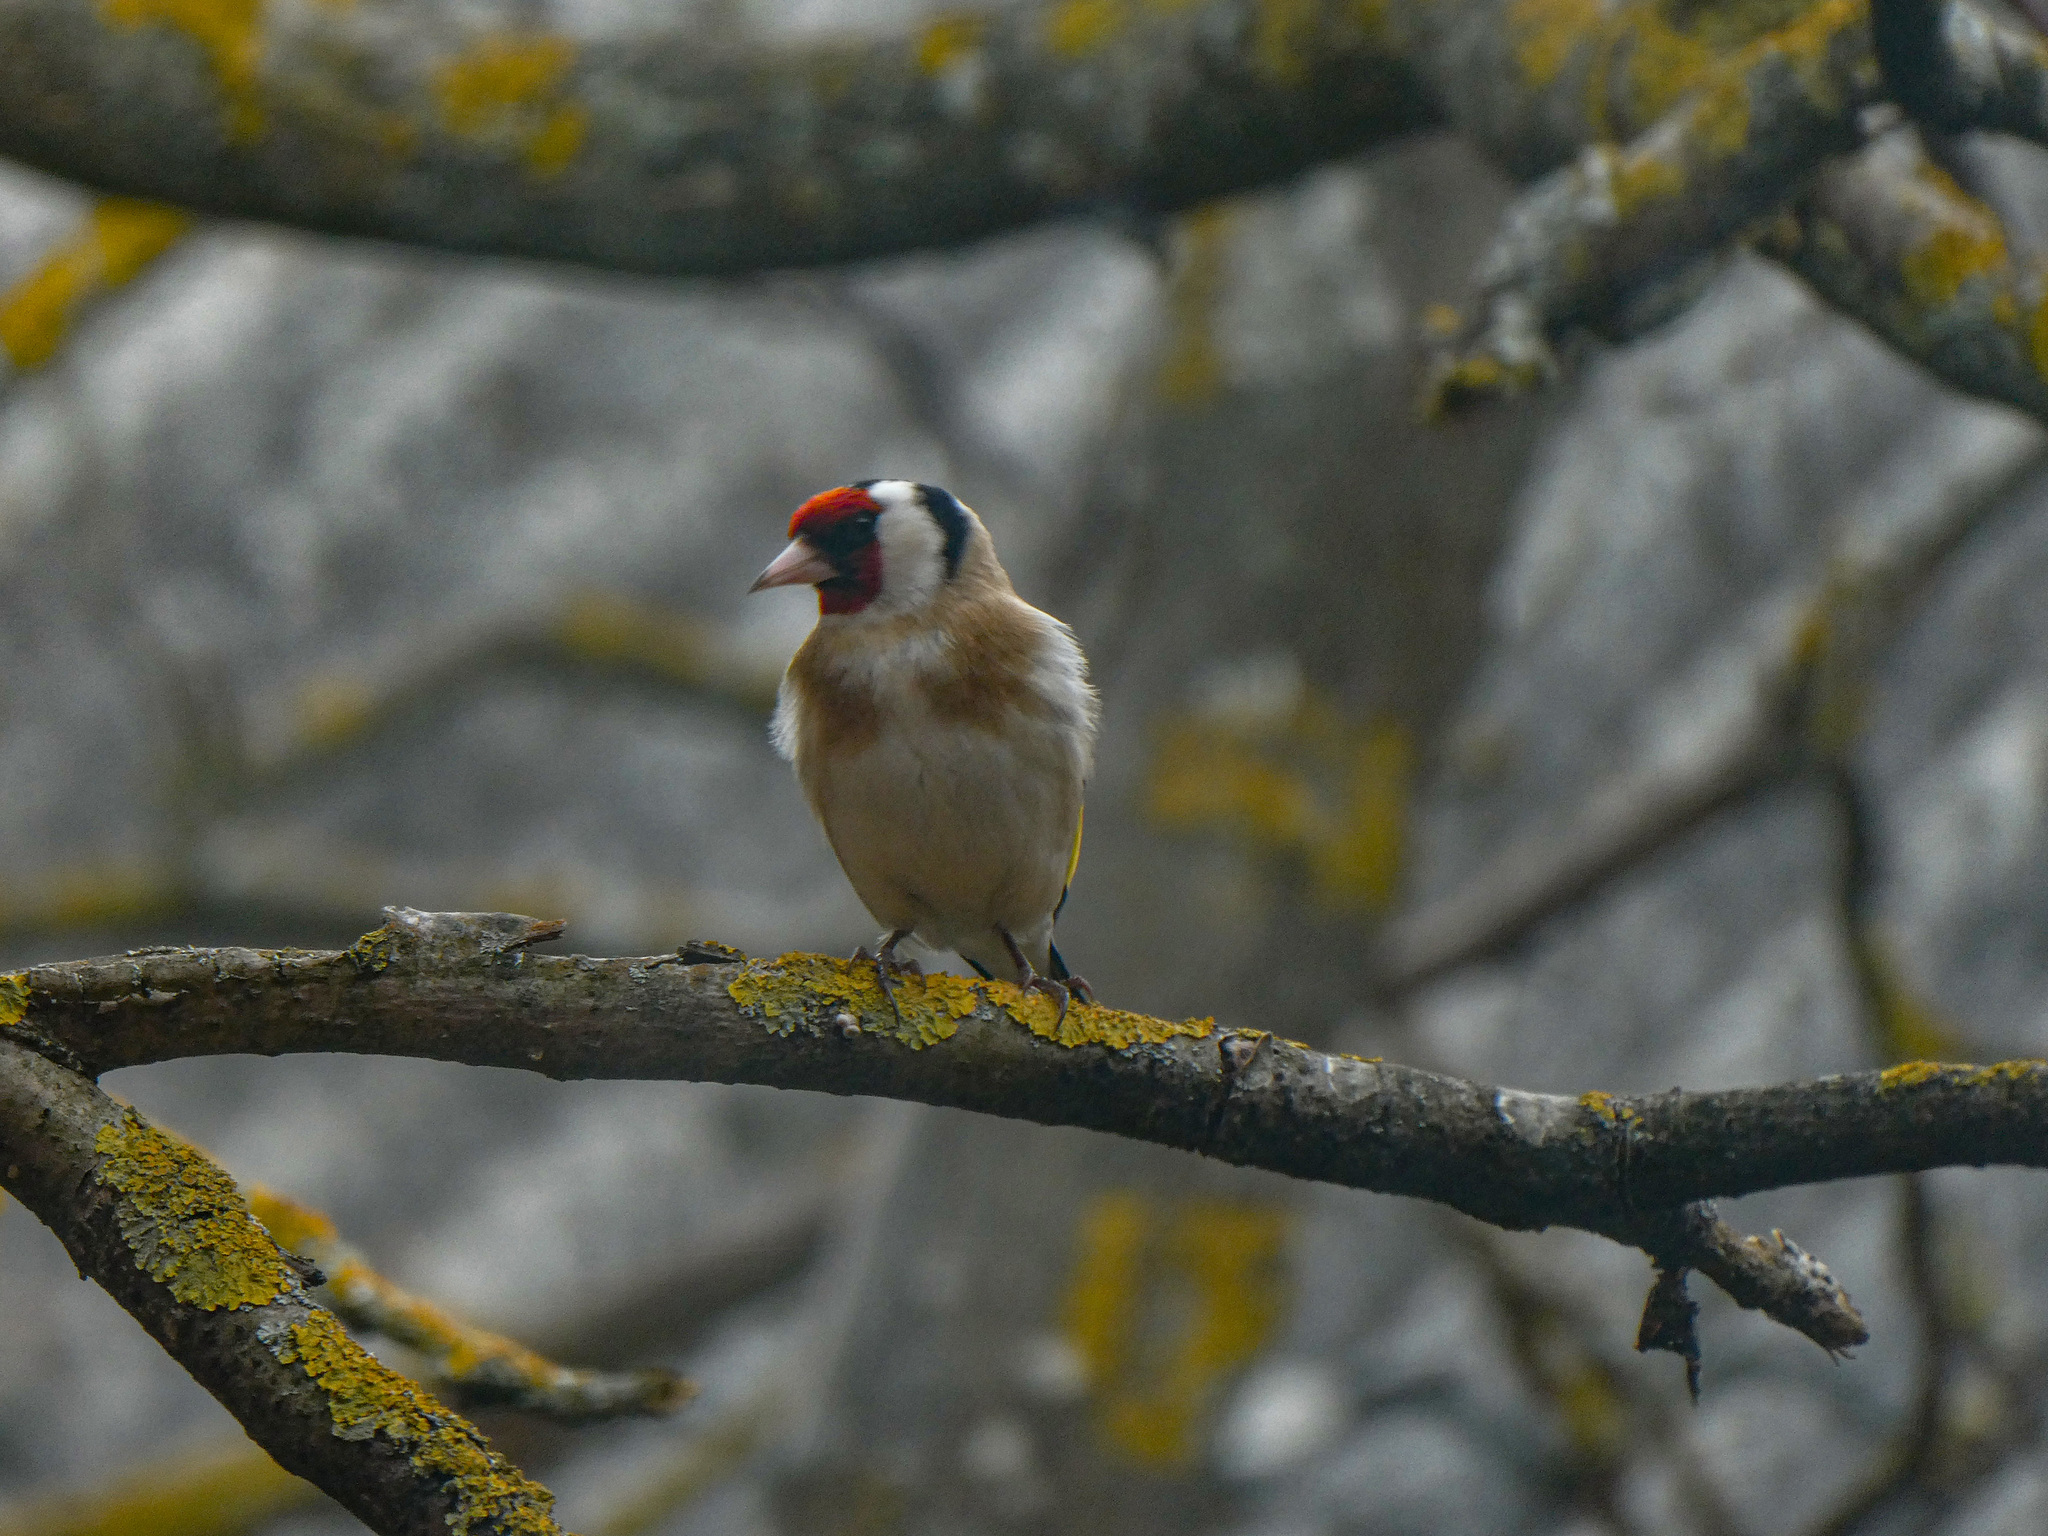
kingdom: Animalia
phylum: Chordata
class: Aves
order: Passeriformes
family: Fringillidae
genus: Carduelis
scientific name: Carduelis carduelis
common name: European goldfinch
